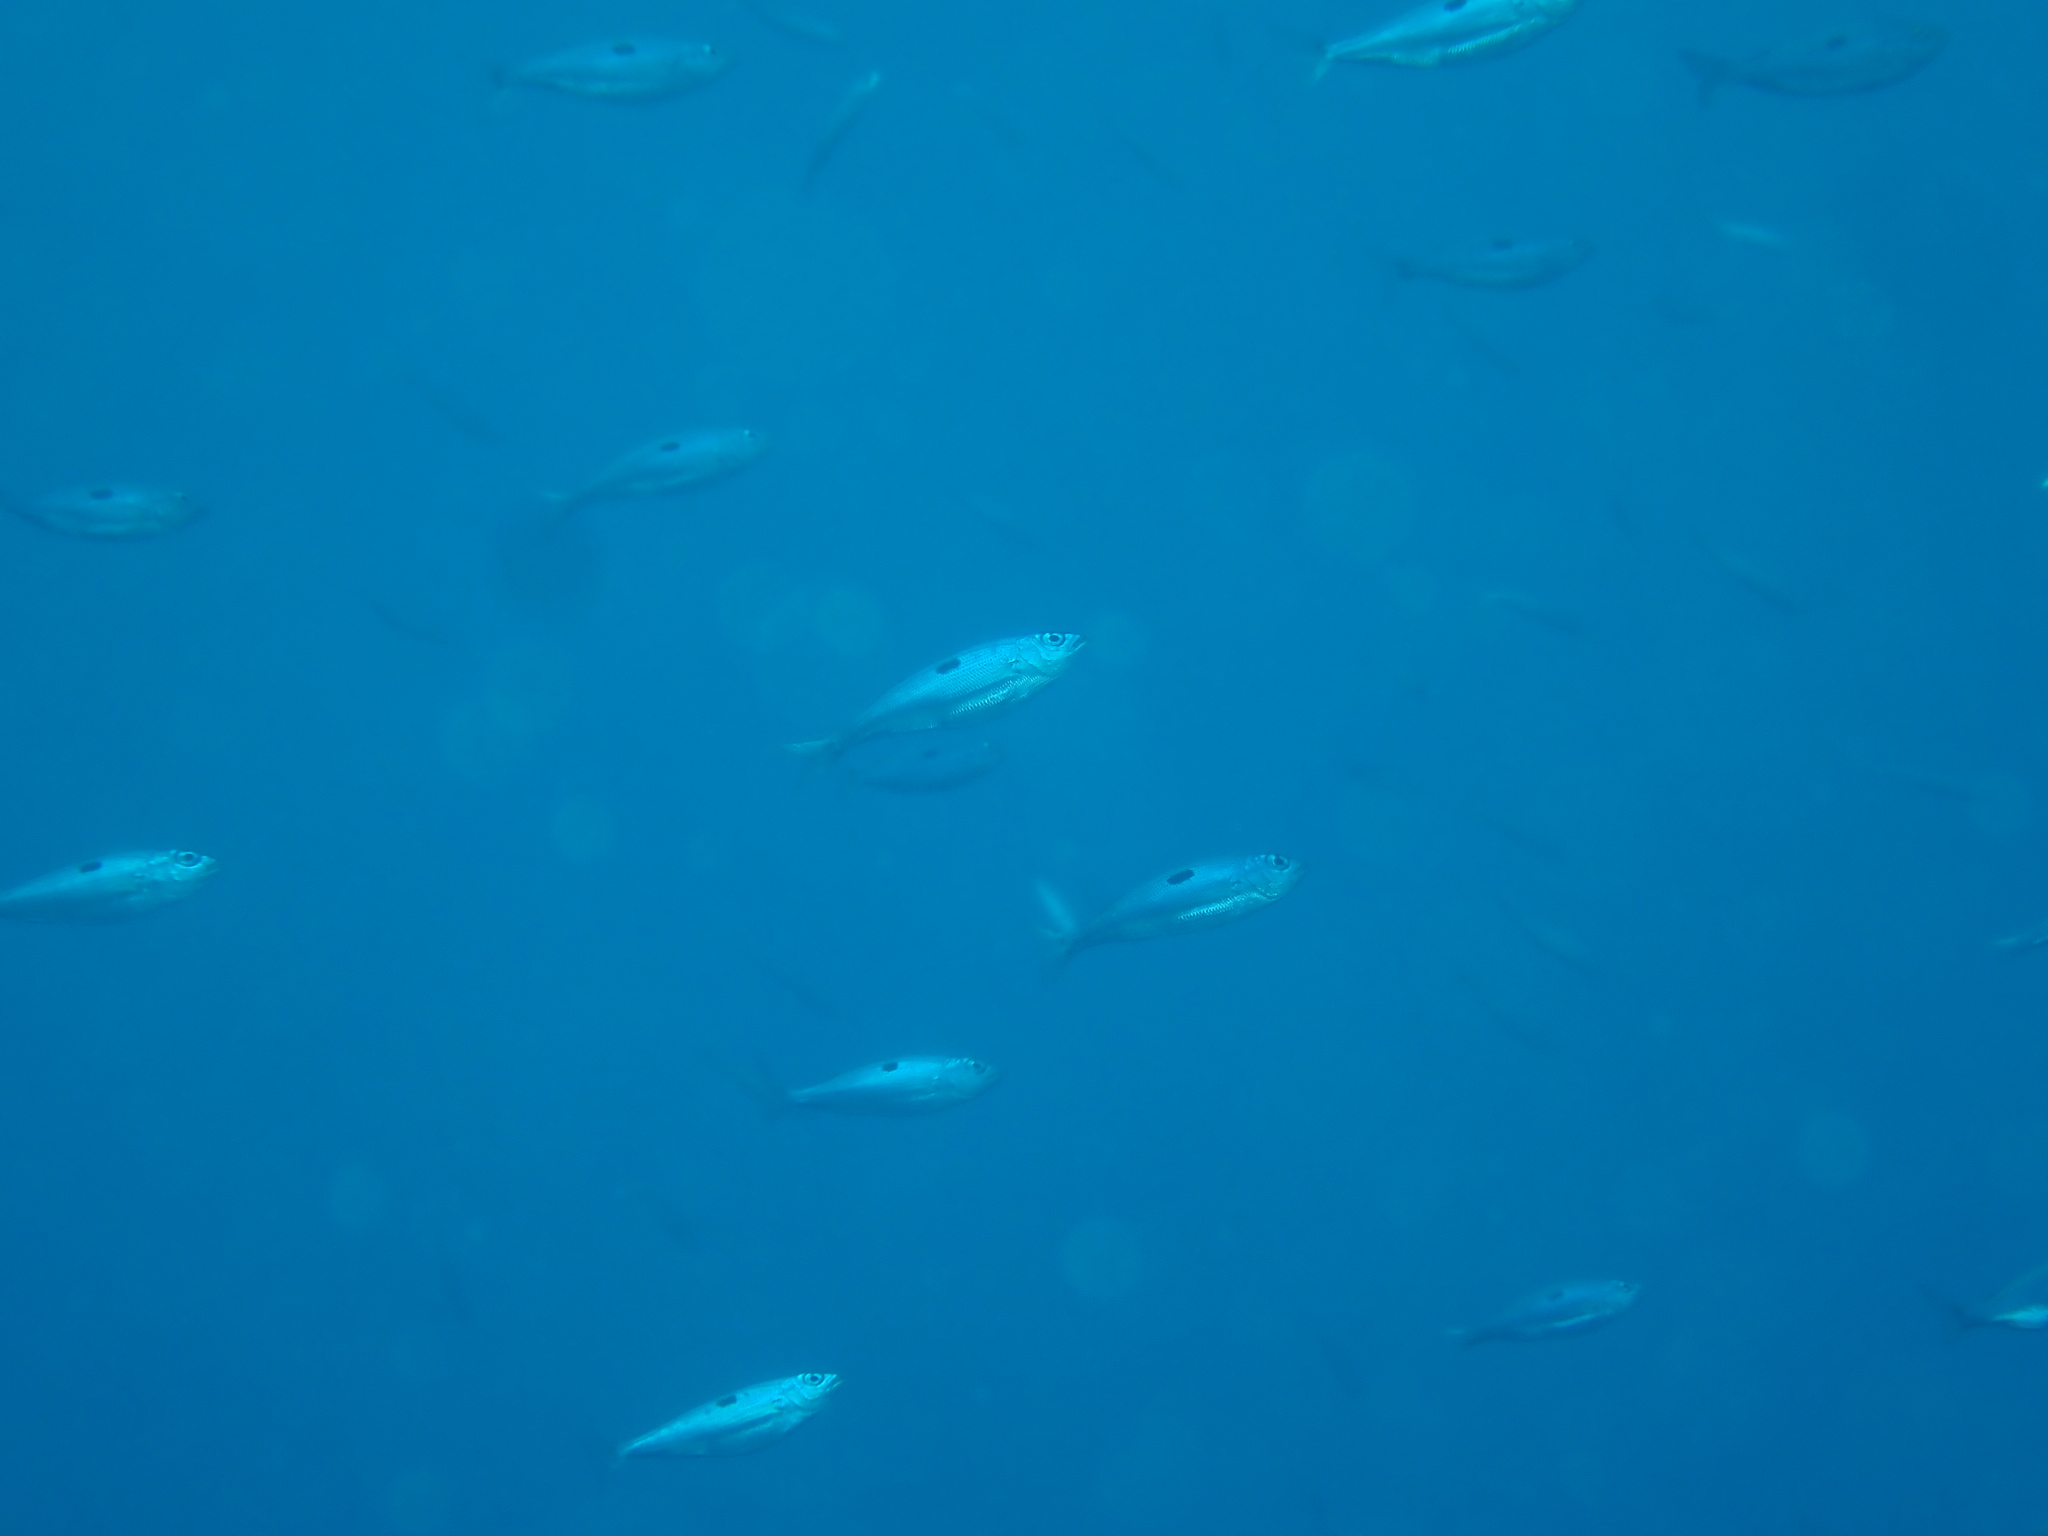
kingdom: Animalia
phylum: Chordata
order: Perciformes
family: Sparidae
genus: Spicara
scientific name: Spicara maena
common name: Blotched picarel
